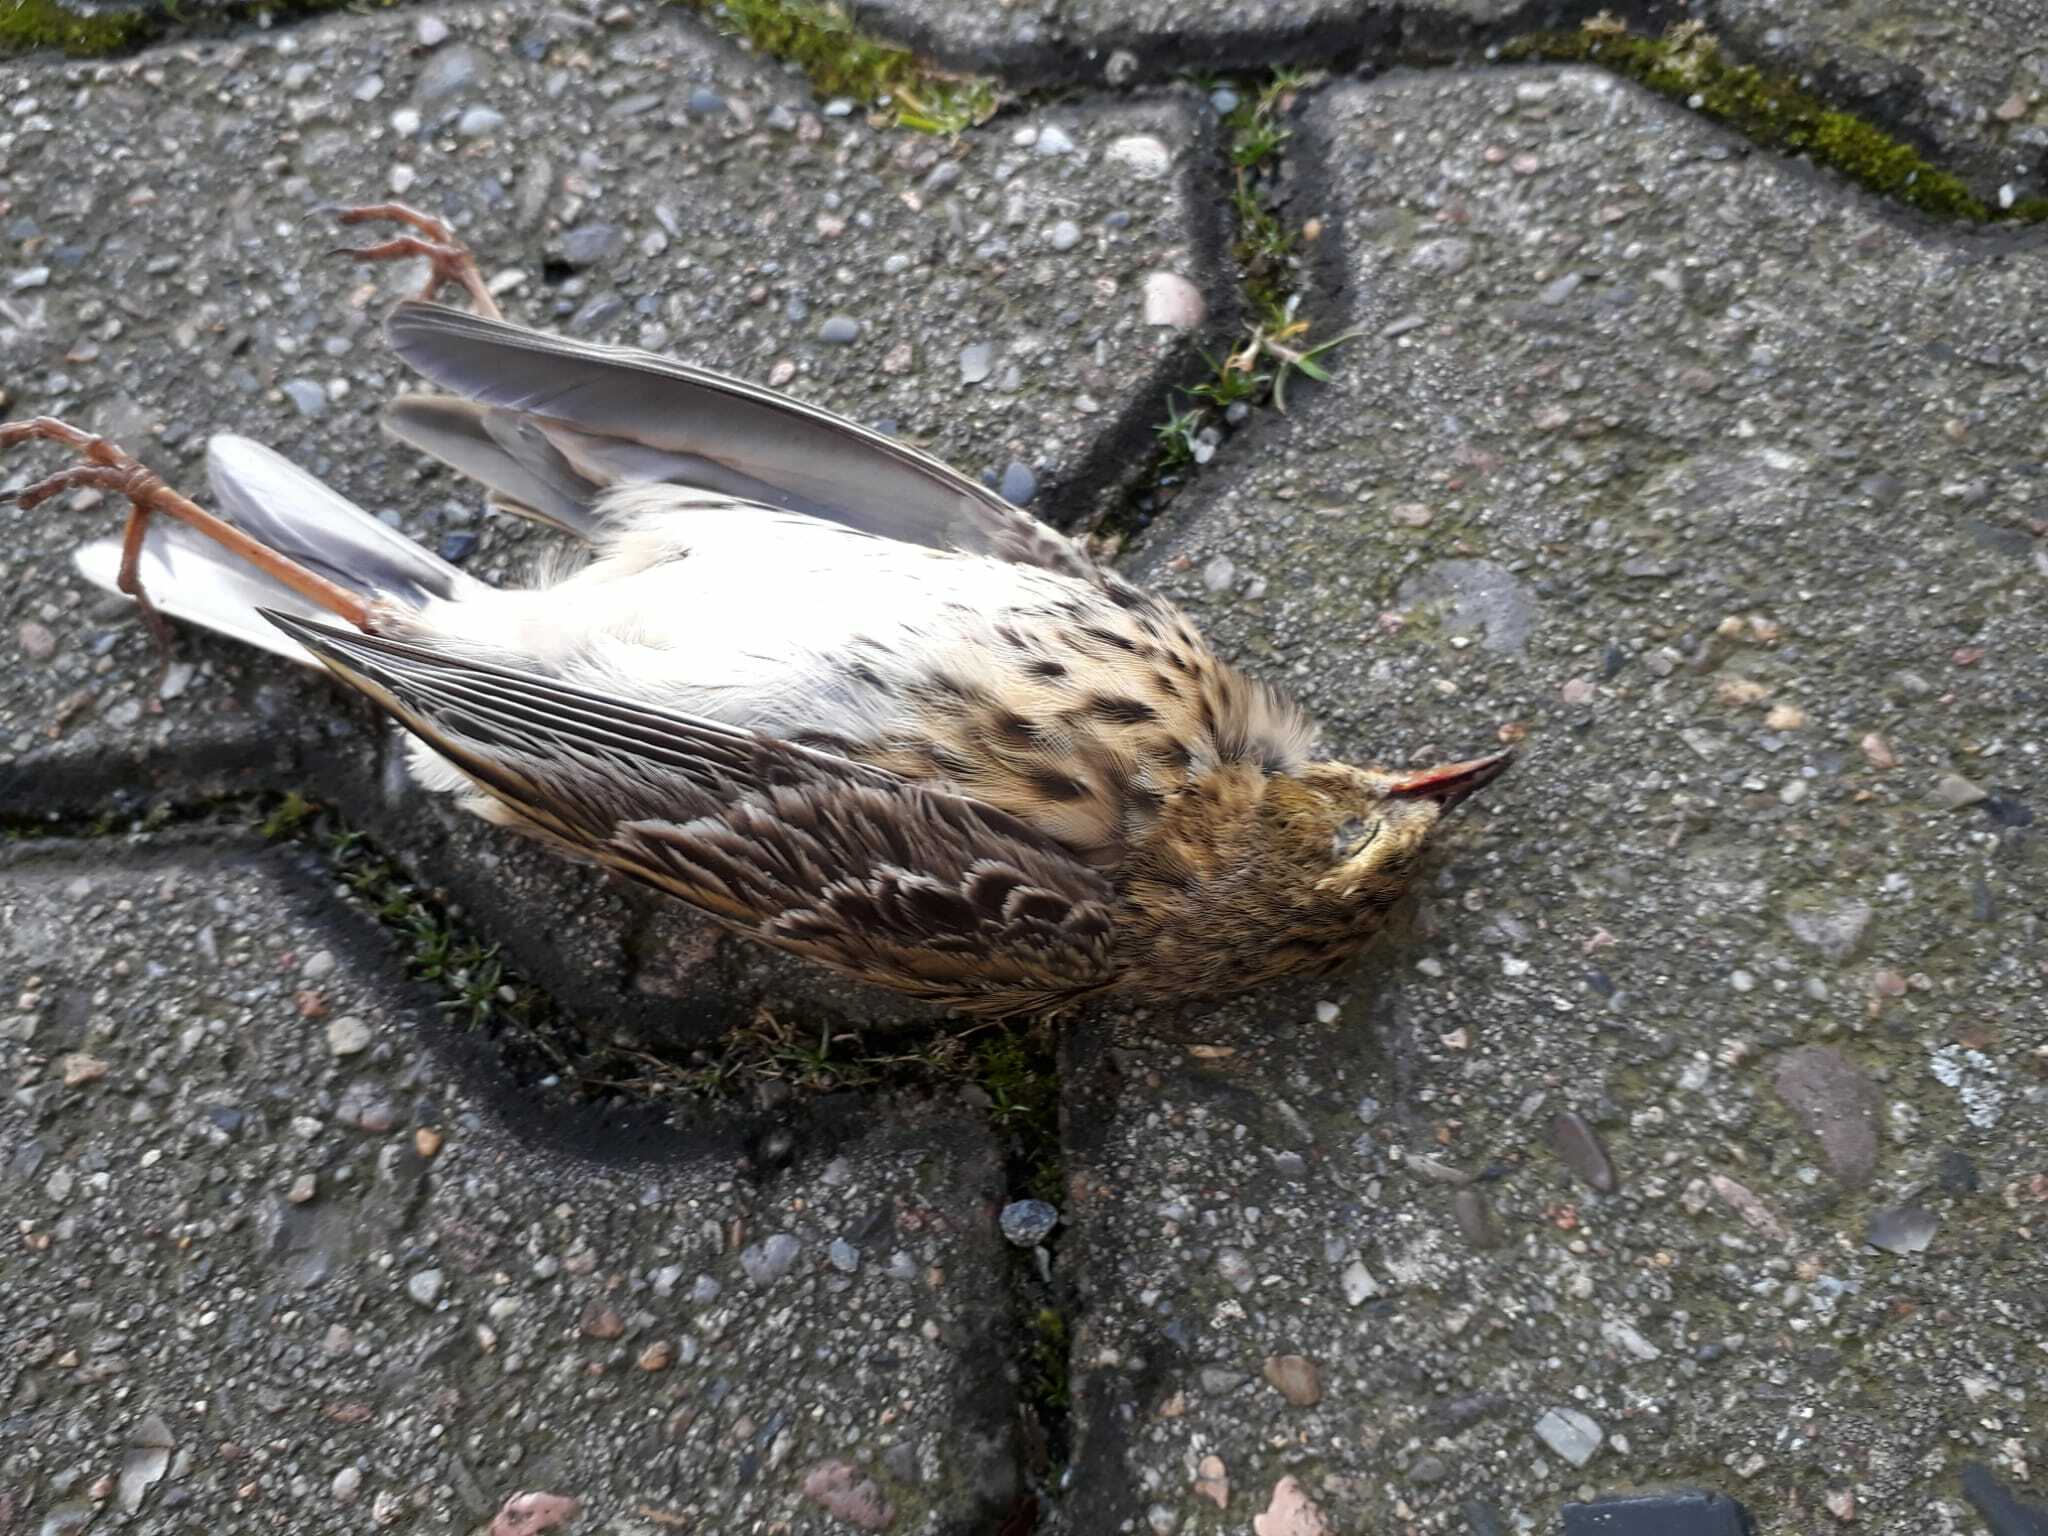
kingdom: Animalia
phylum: Chordata
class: Aves
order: Passeriformes
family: Motacillidae
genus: Anthus
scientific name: Anthus trivialis
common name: Tree pipit
